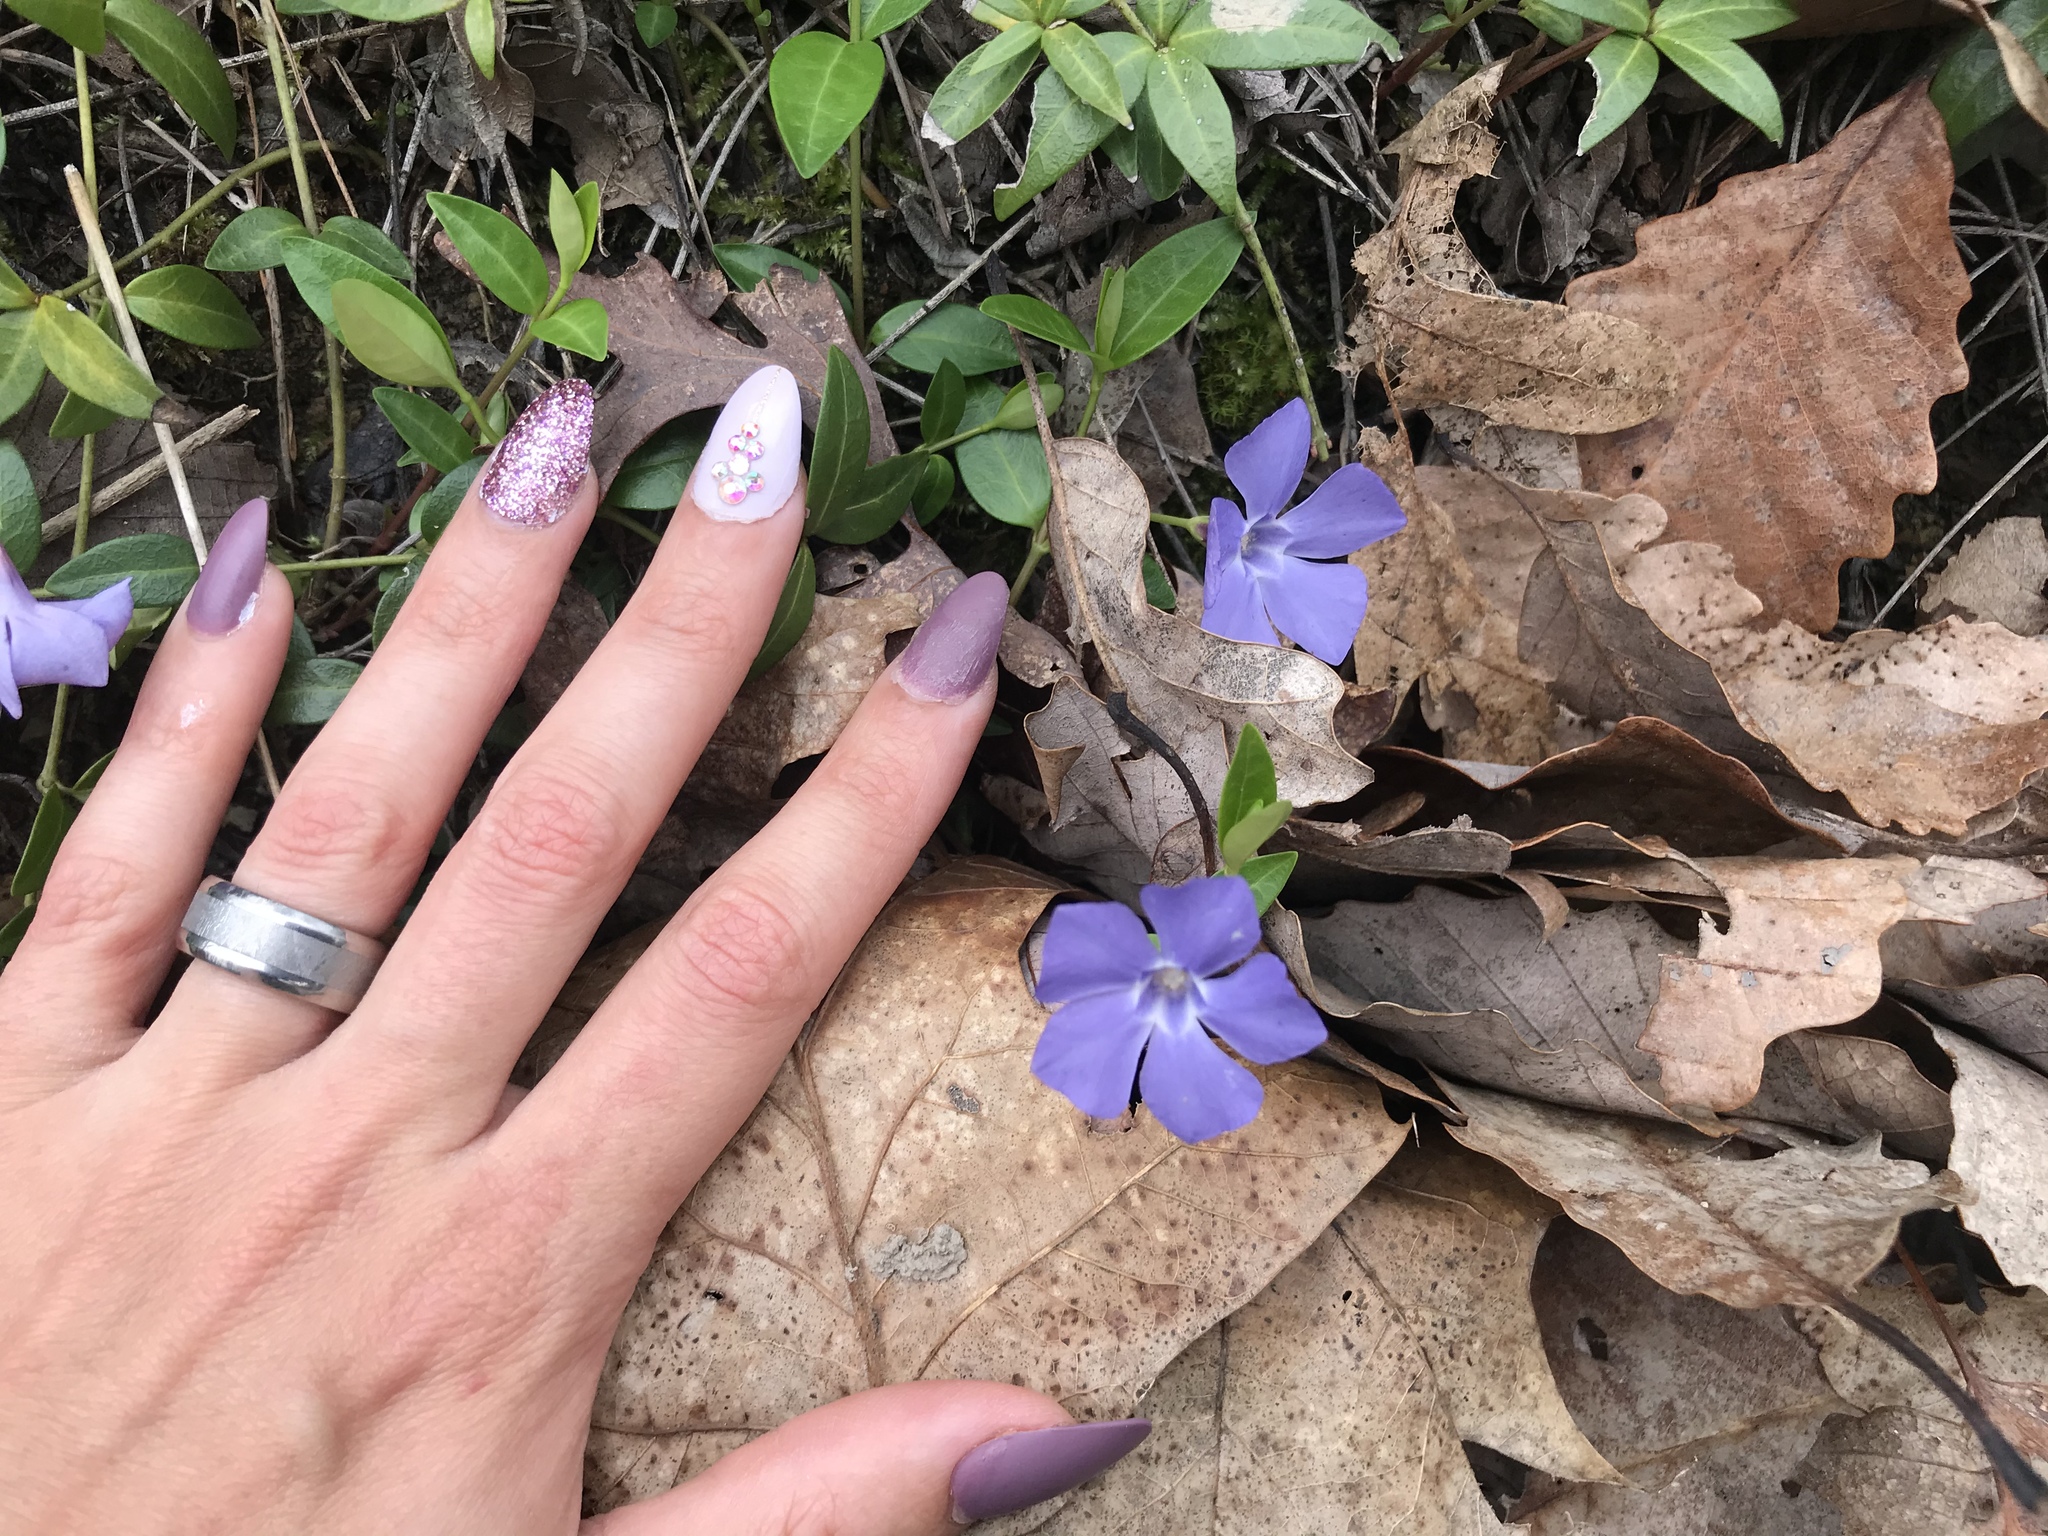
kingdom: Plantae
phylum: Tracheophyta
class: Magnoliopsida
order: Gentianales
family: Apocynaceae
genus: Vinca
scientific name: Vinca minor
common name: Lesser periwinkle
